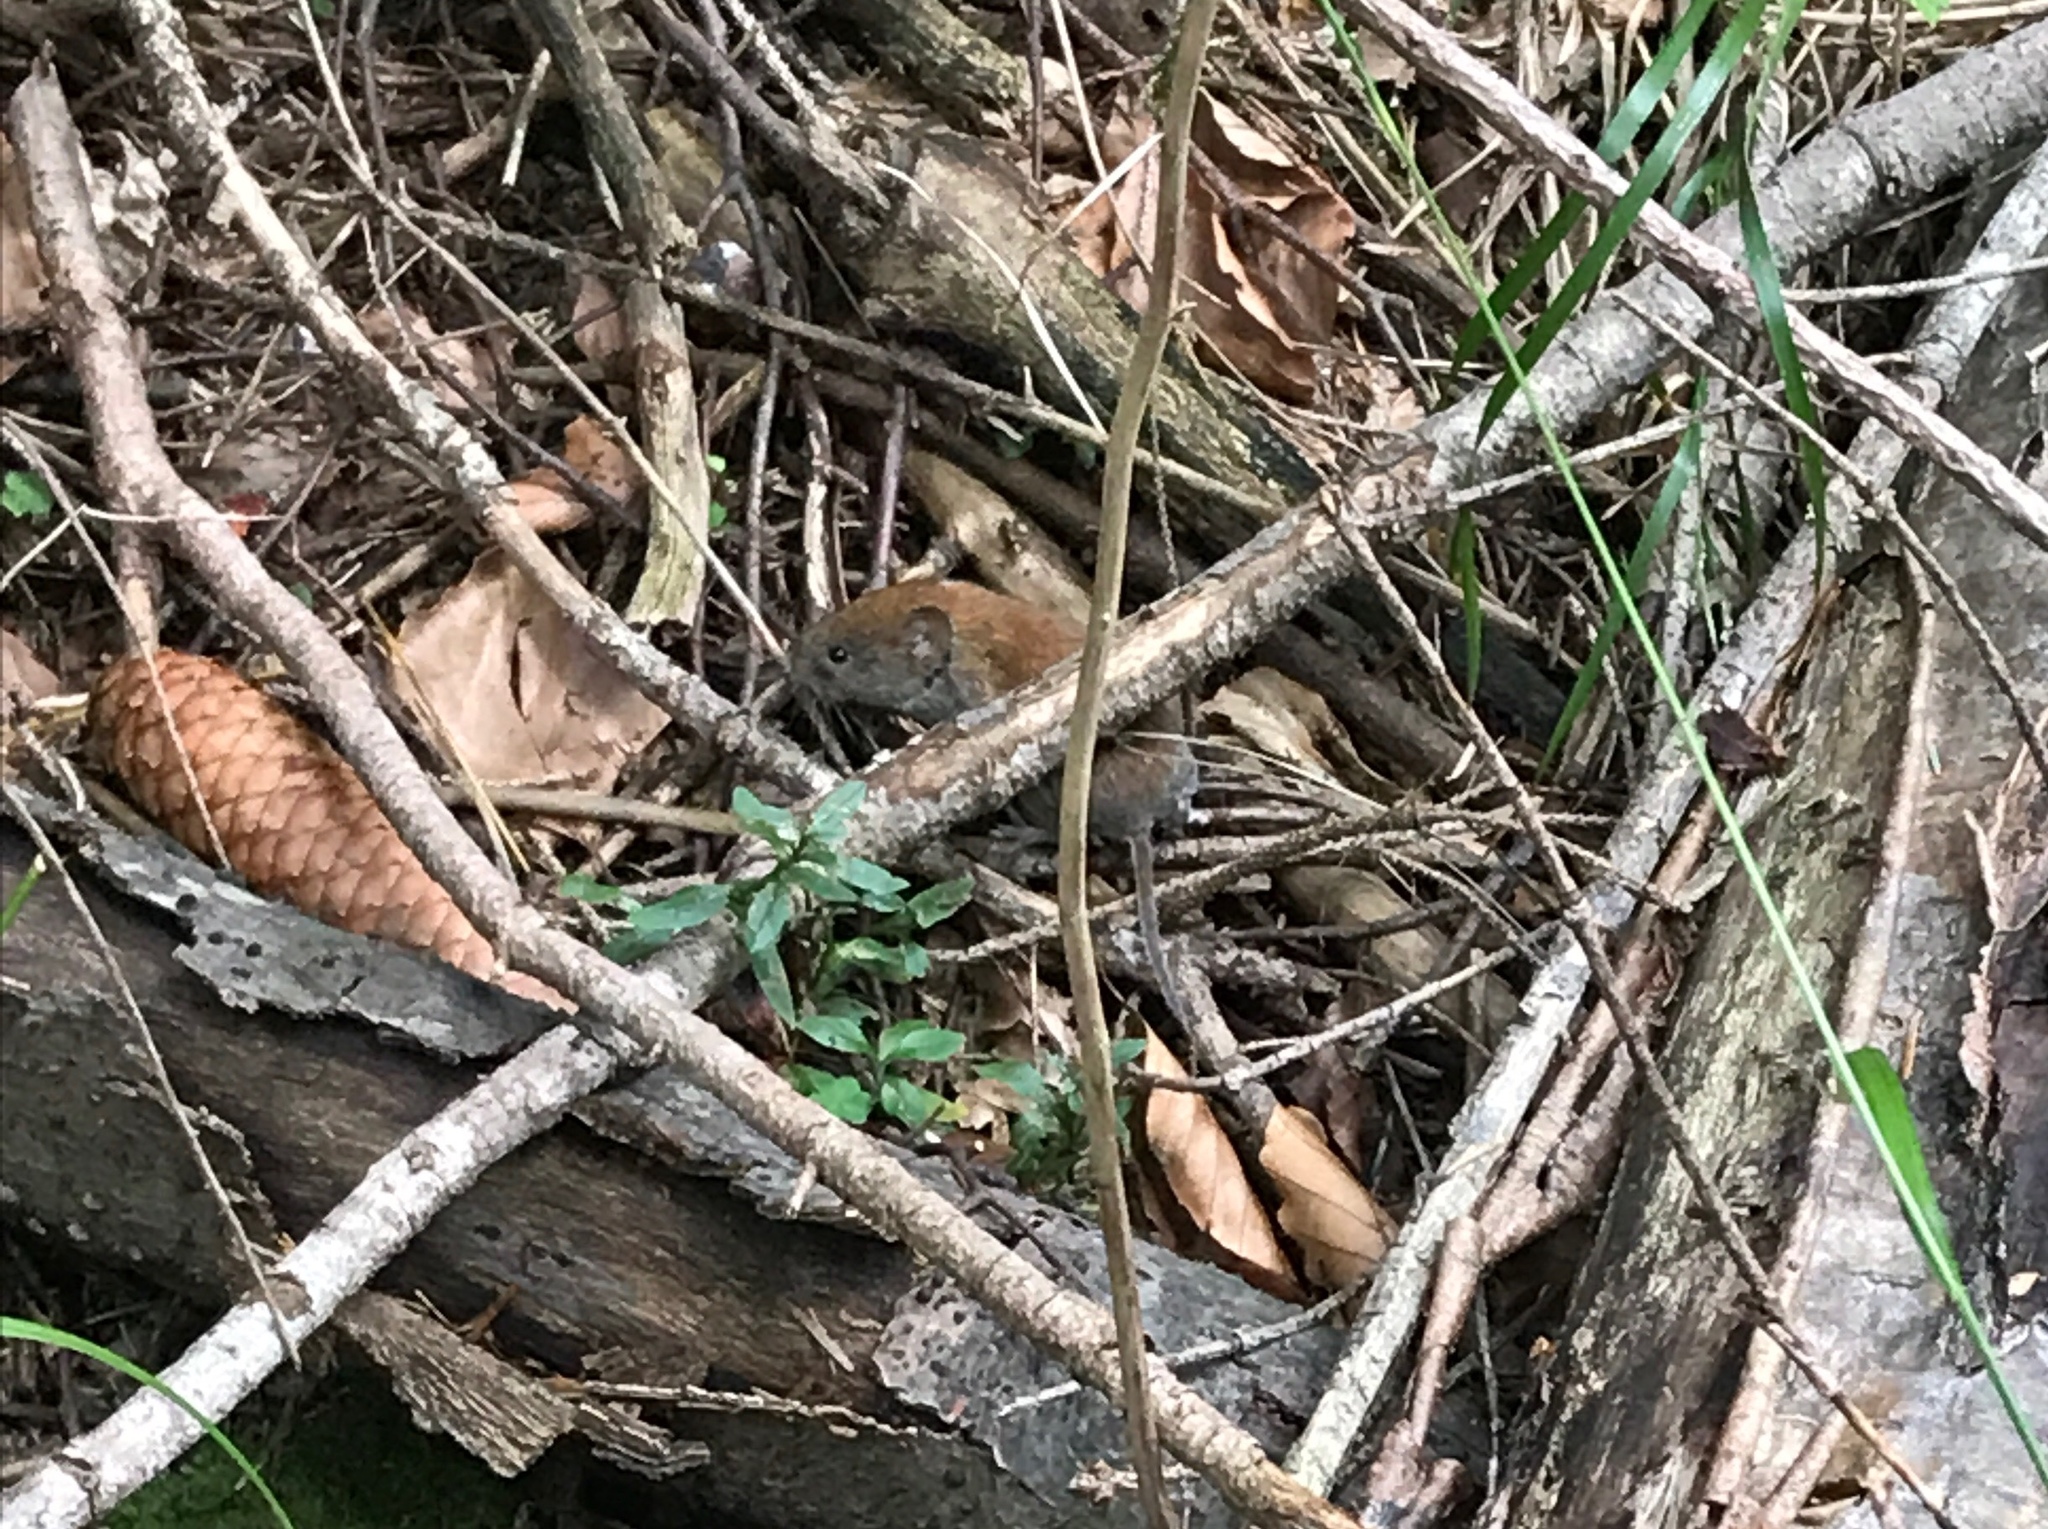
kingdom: Animalia
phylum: Chordata
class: Mammalia
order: Rodentia
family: Cricetidae
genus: Myodes
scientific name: Myodes glareolus
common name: Bank vole
